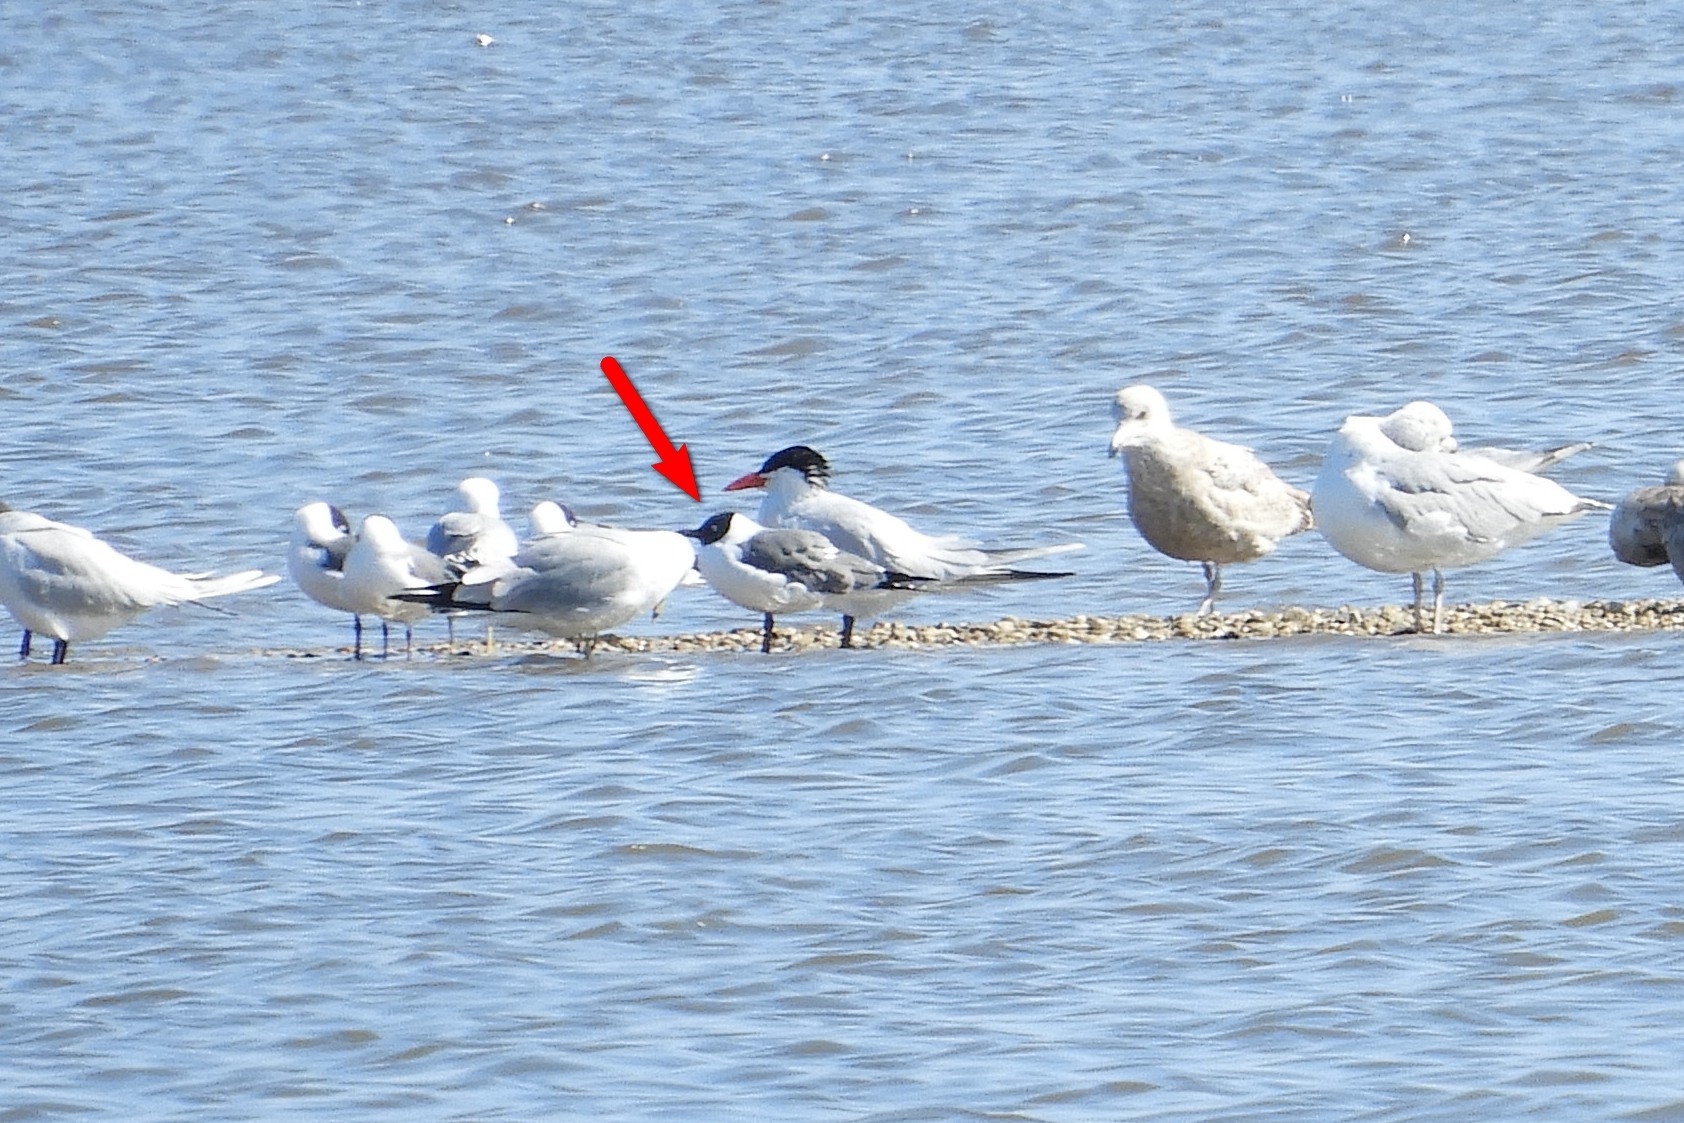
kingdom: Animalia
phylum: Chordata
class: Aves
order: Charadriiformes
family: Laridae
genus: Leucophaeus
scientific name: Leucophaeus atricilla
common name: Laughing gull
